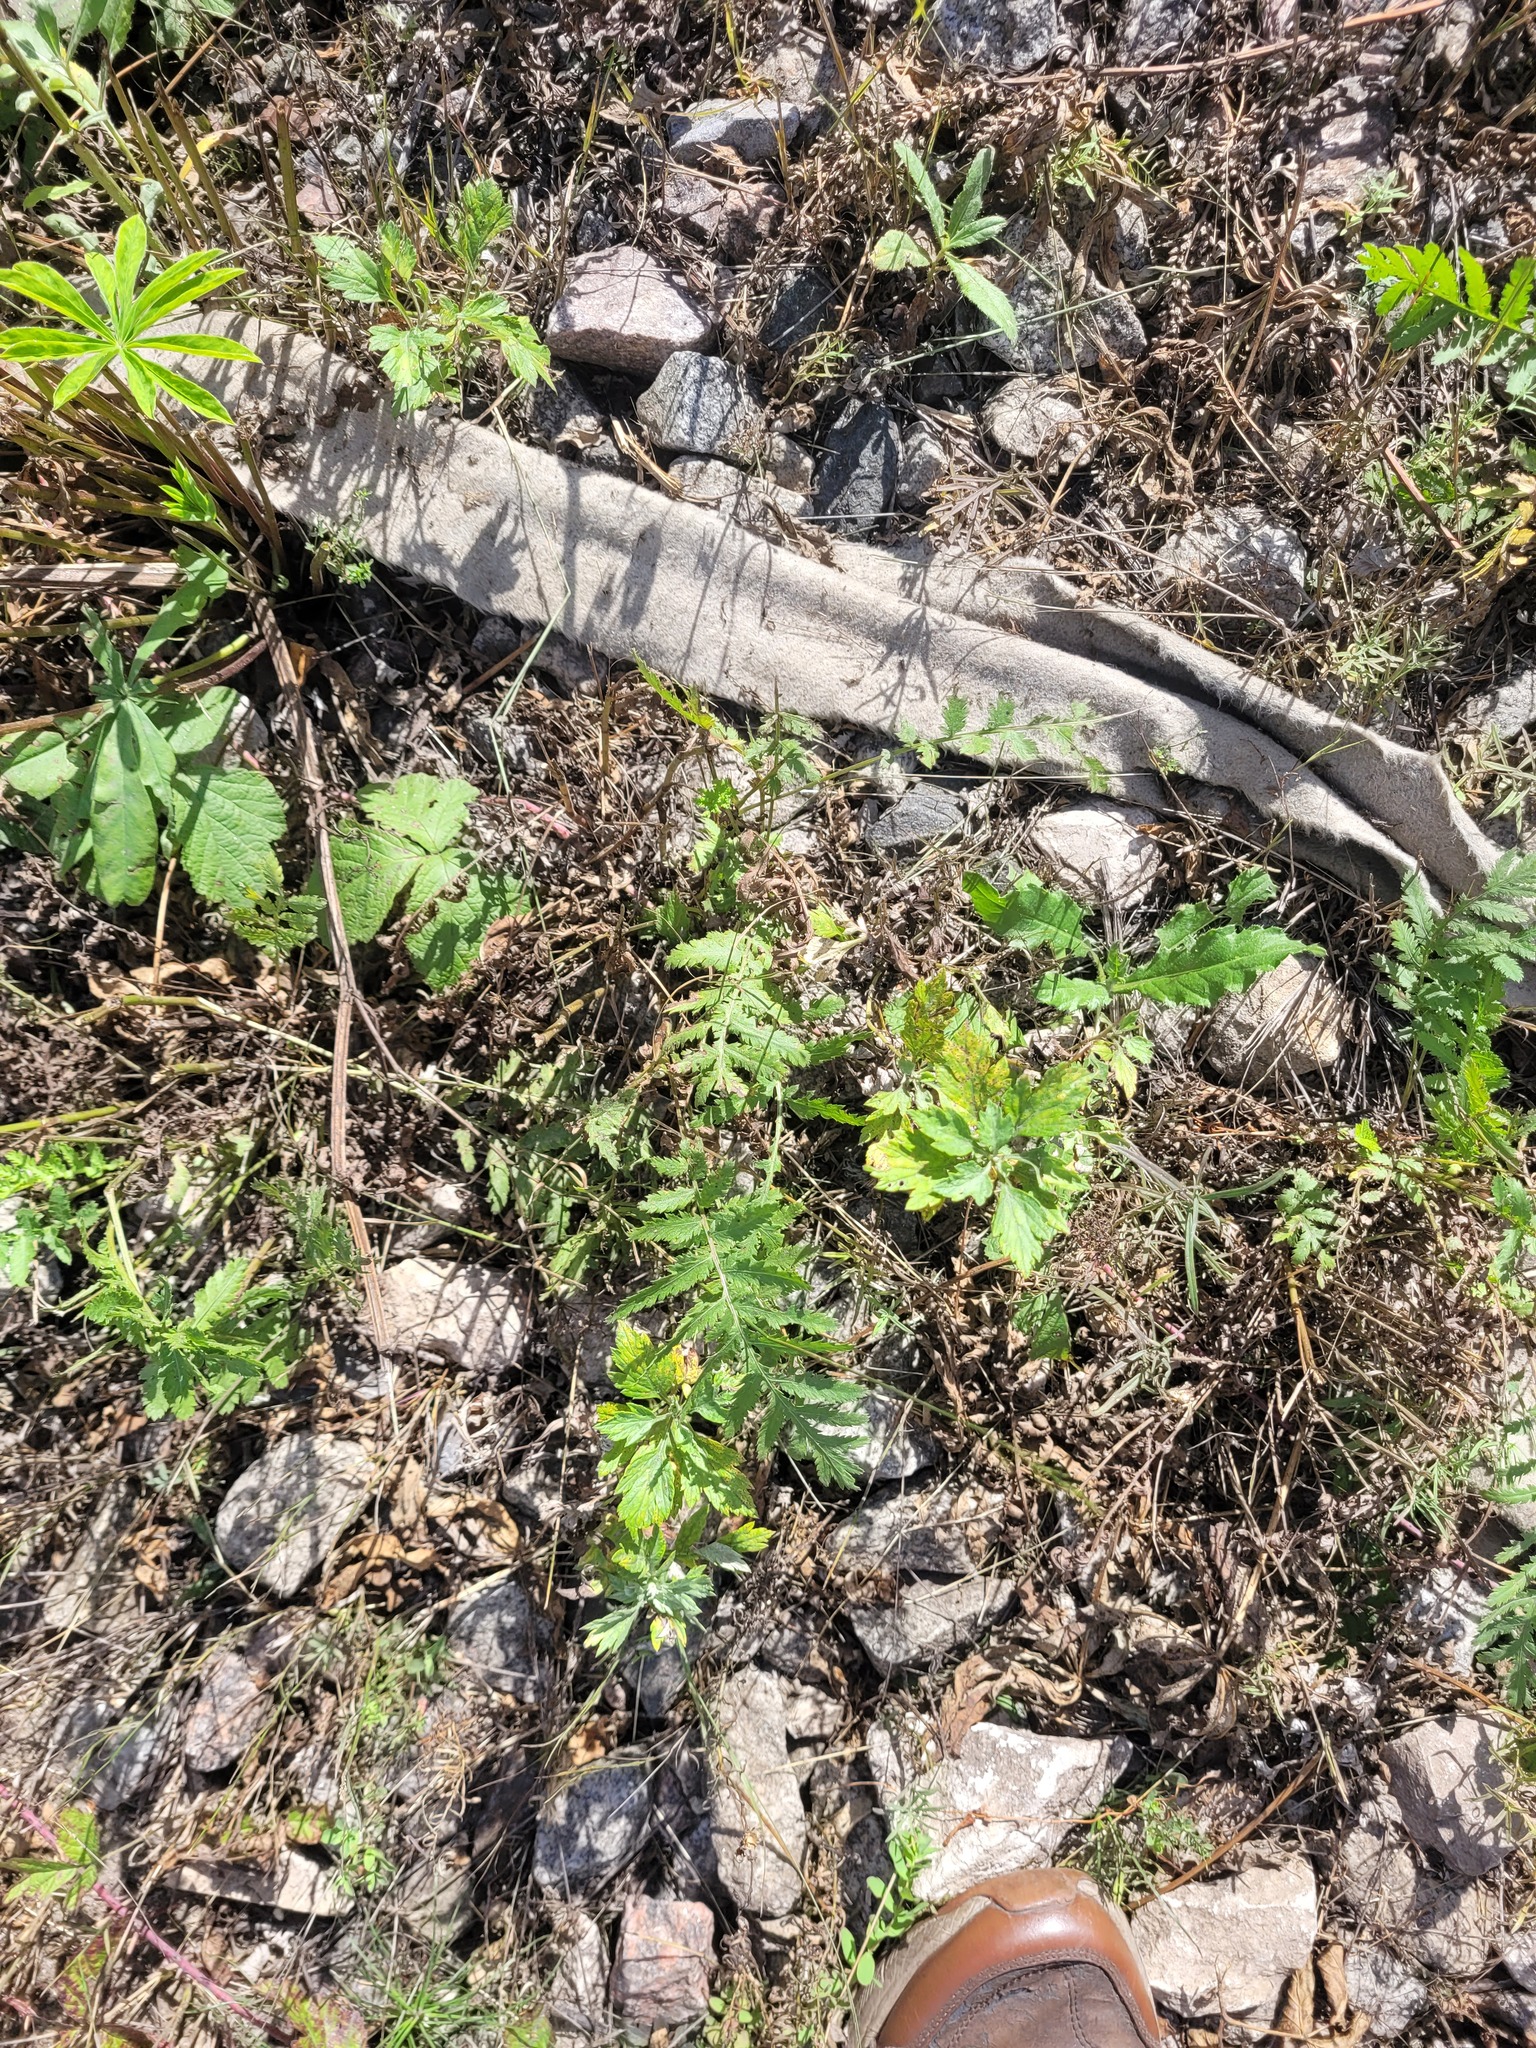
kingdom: Plantae
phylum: Tracheophyta
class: Magnoliopsida
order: Asterales
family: Asteraceae
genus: Tanacetum
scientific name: Tanacetum vulgare
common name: Common tansy
